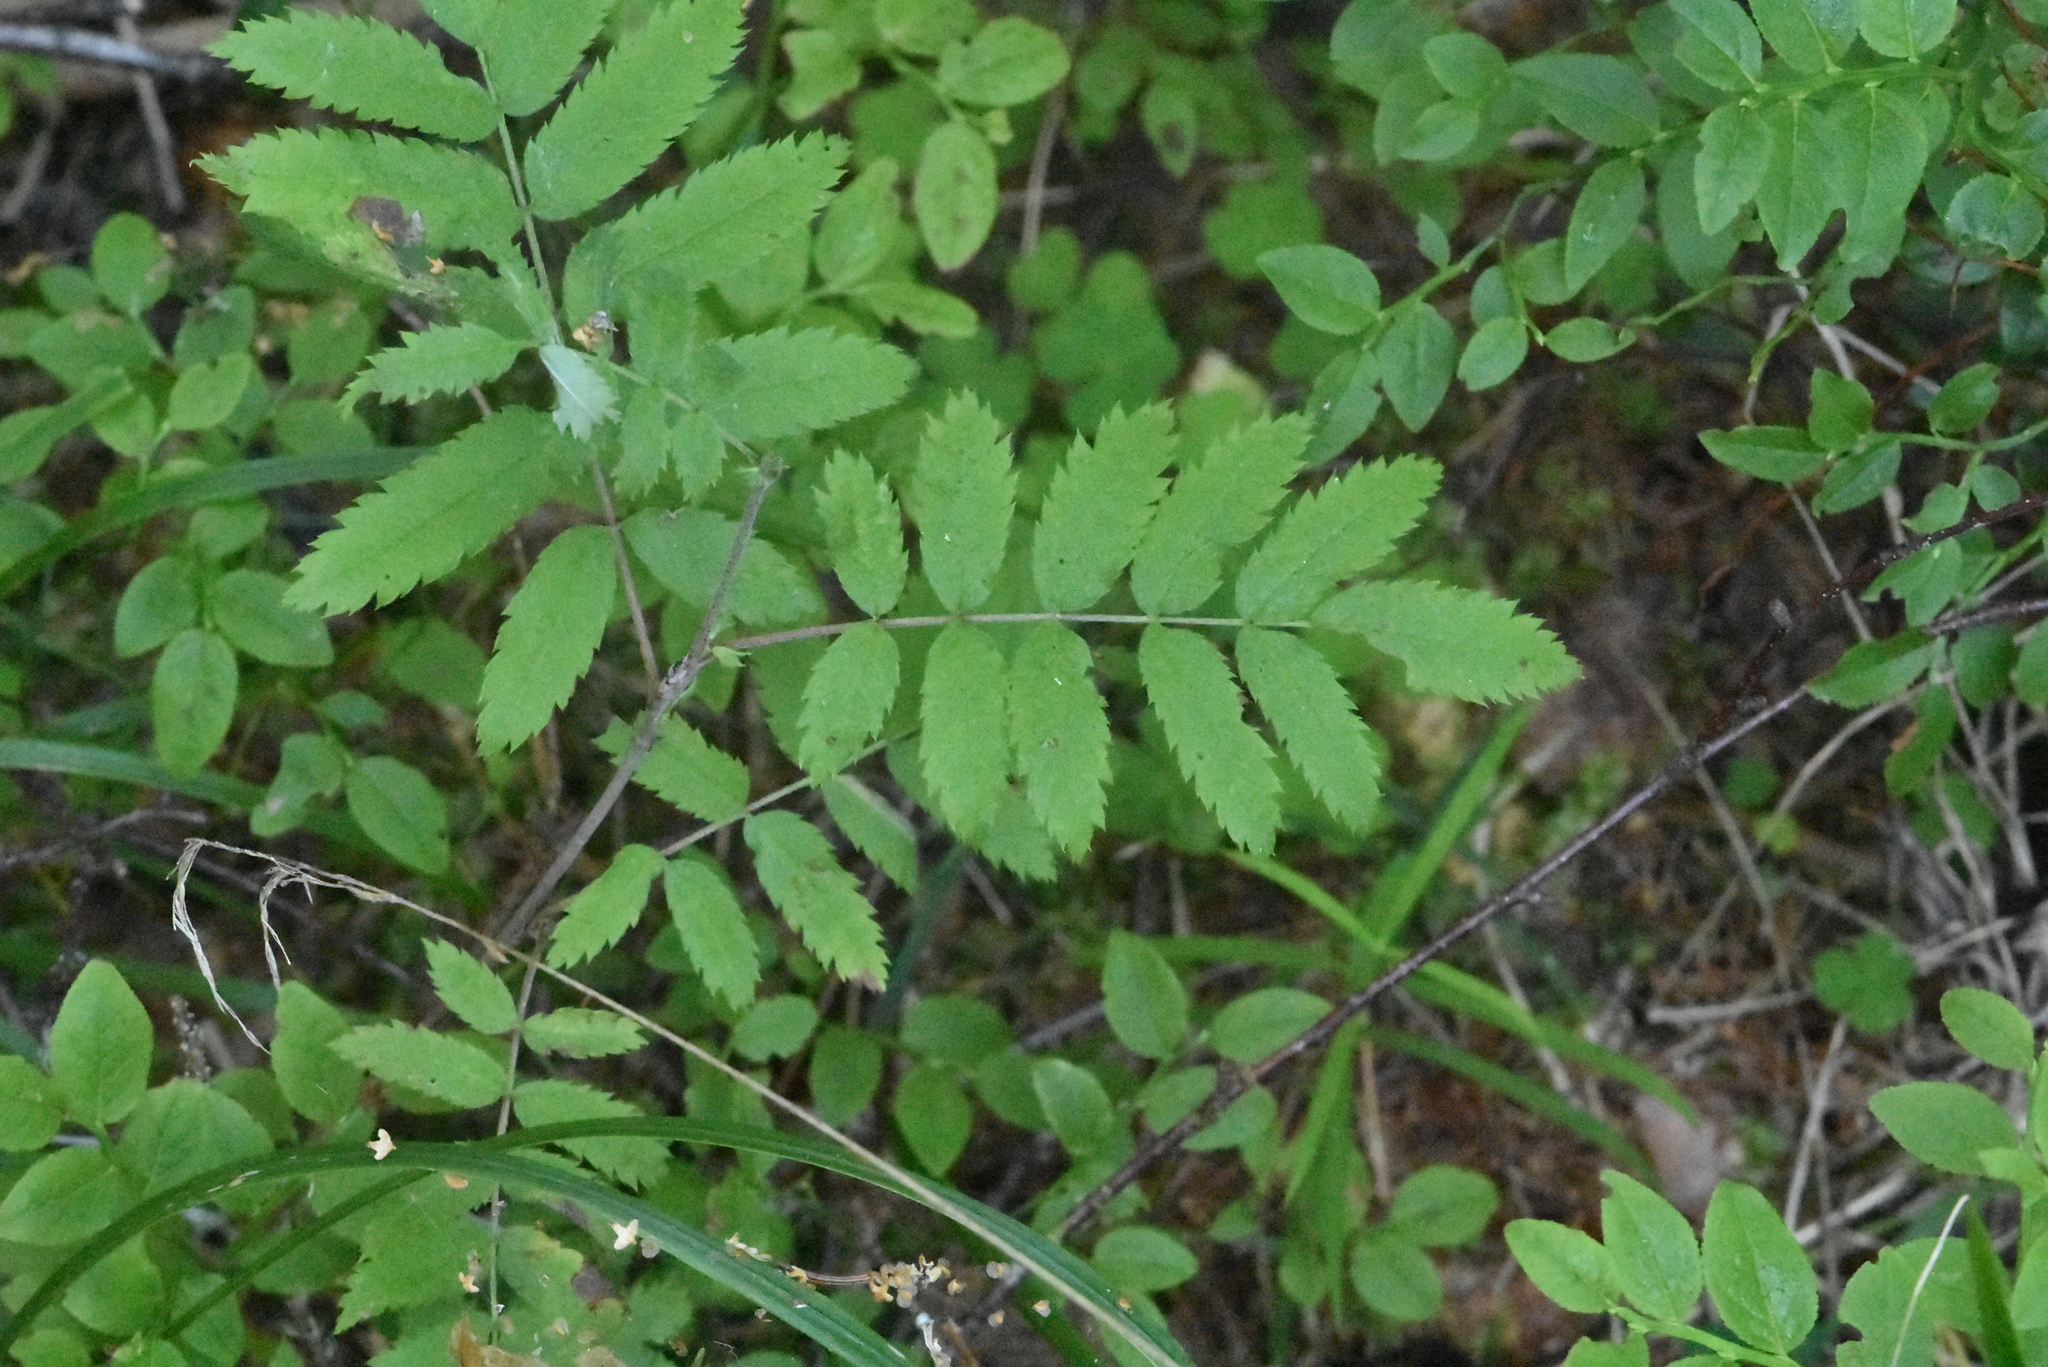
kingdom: Plantae
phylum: Tracheophyta
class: Magnoliopsida
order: Rosales
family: Rosaceae
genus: Sorbus
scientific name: Sorbus aucuparia
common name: Rowan
